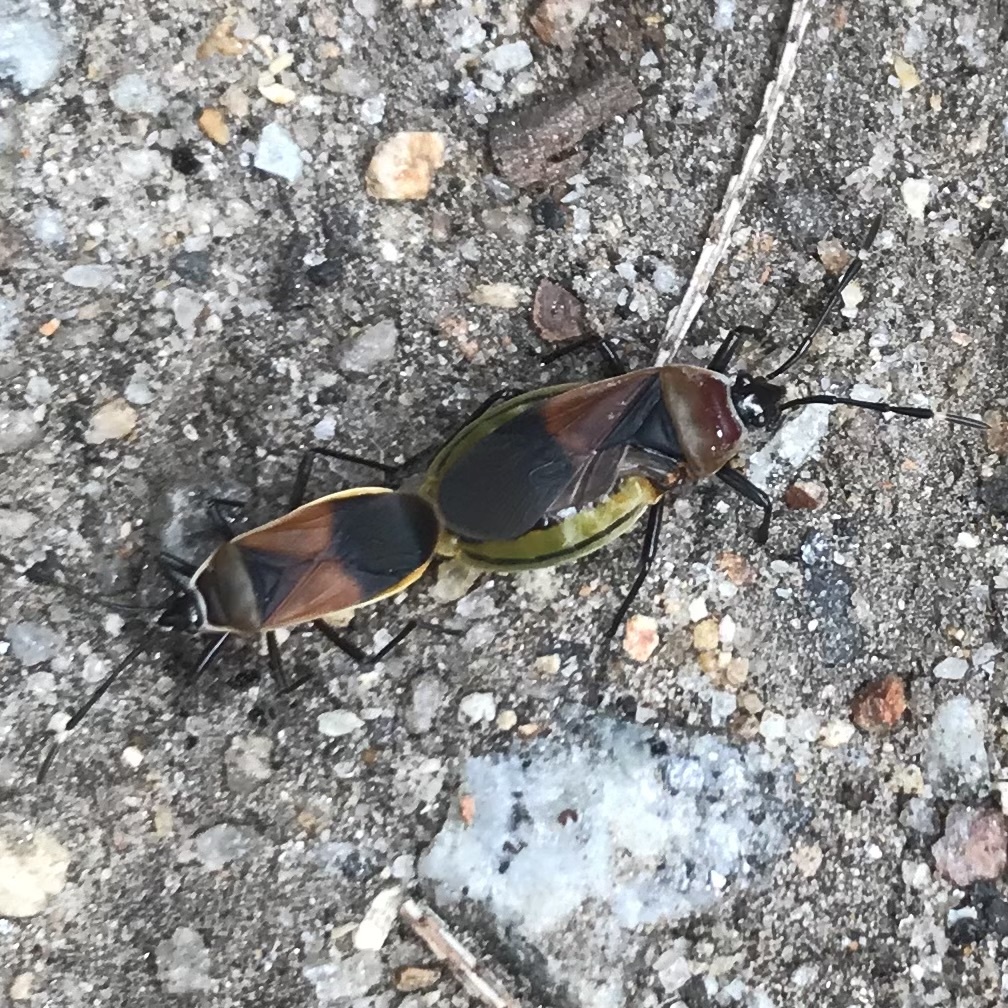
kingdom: Animalia
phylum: Arthropoda
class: Insecta
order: Hemiptera
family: Pyrrhocoridae
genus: Dindymus
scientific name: Dindymus
